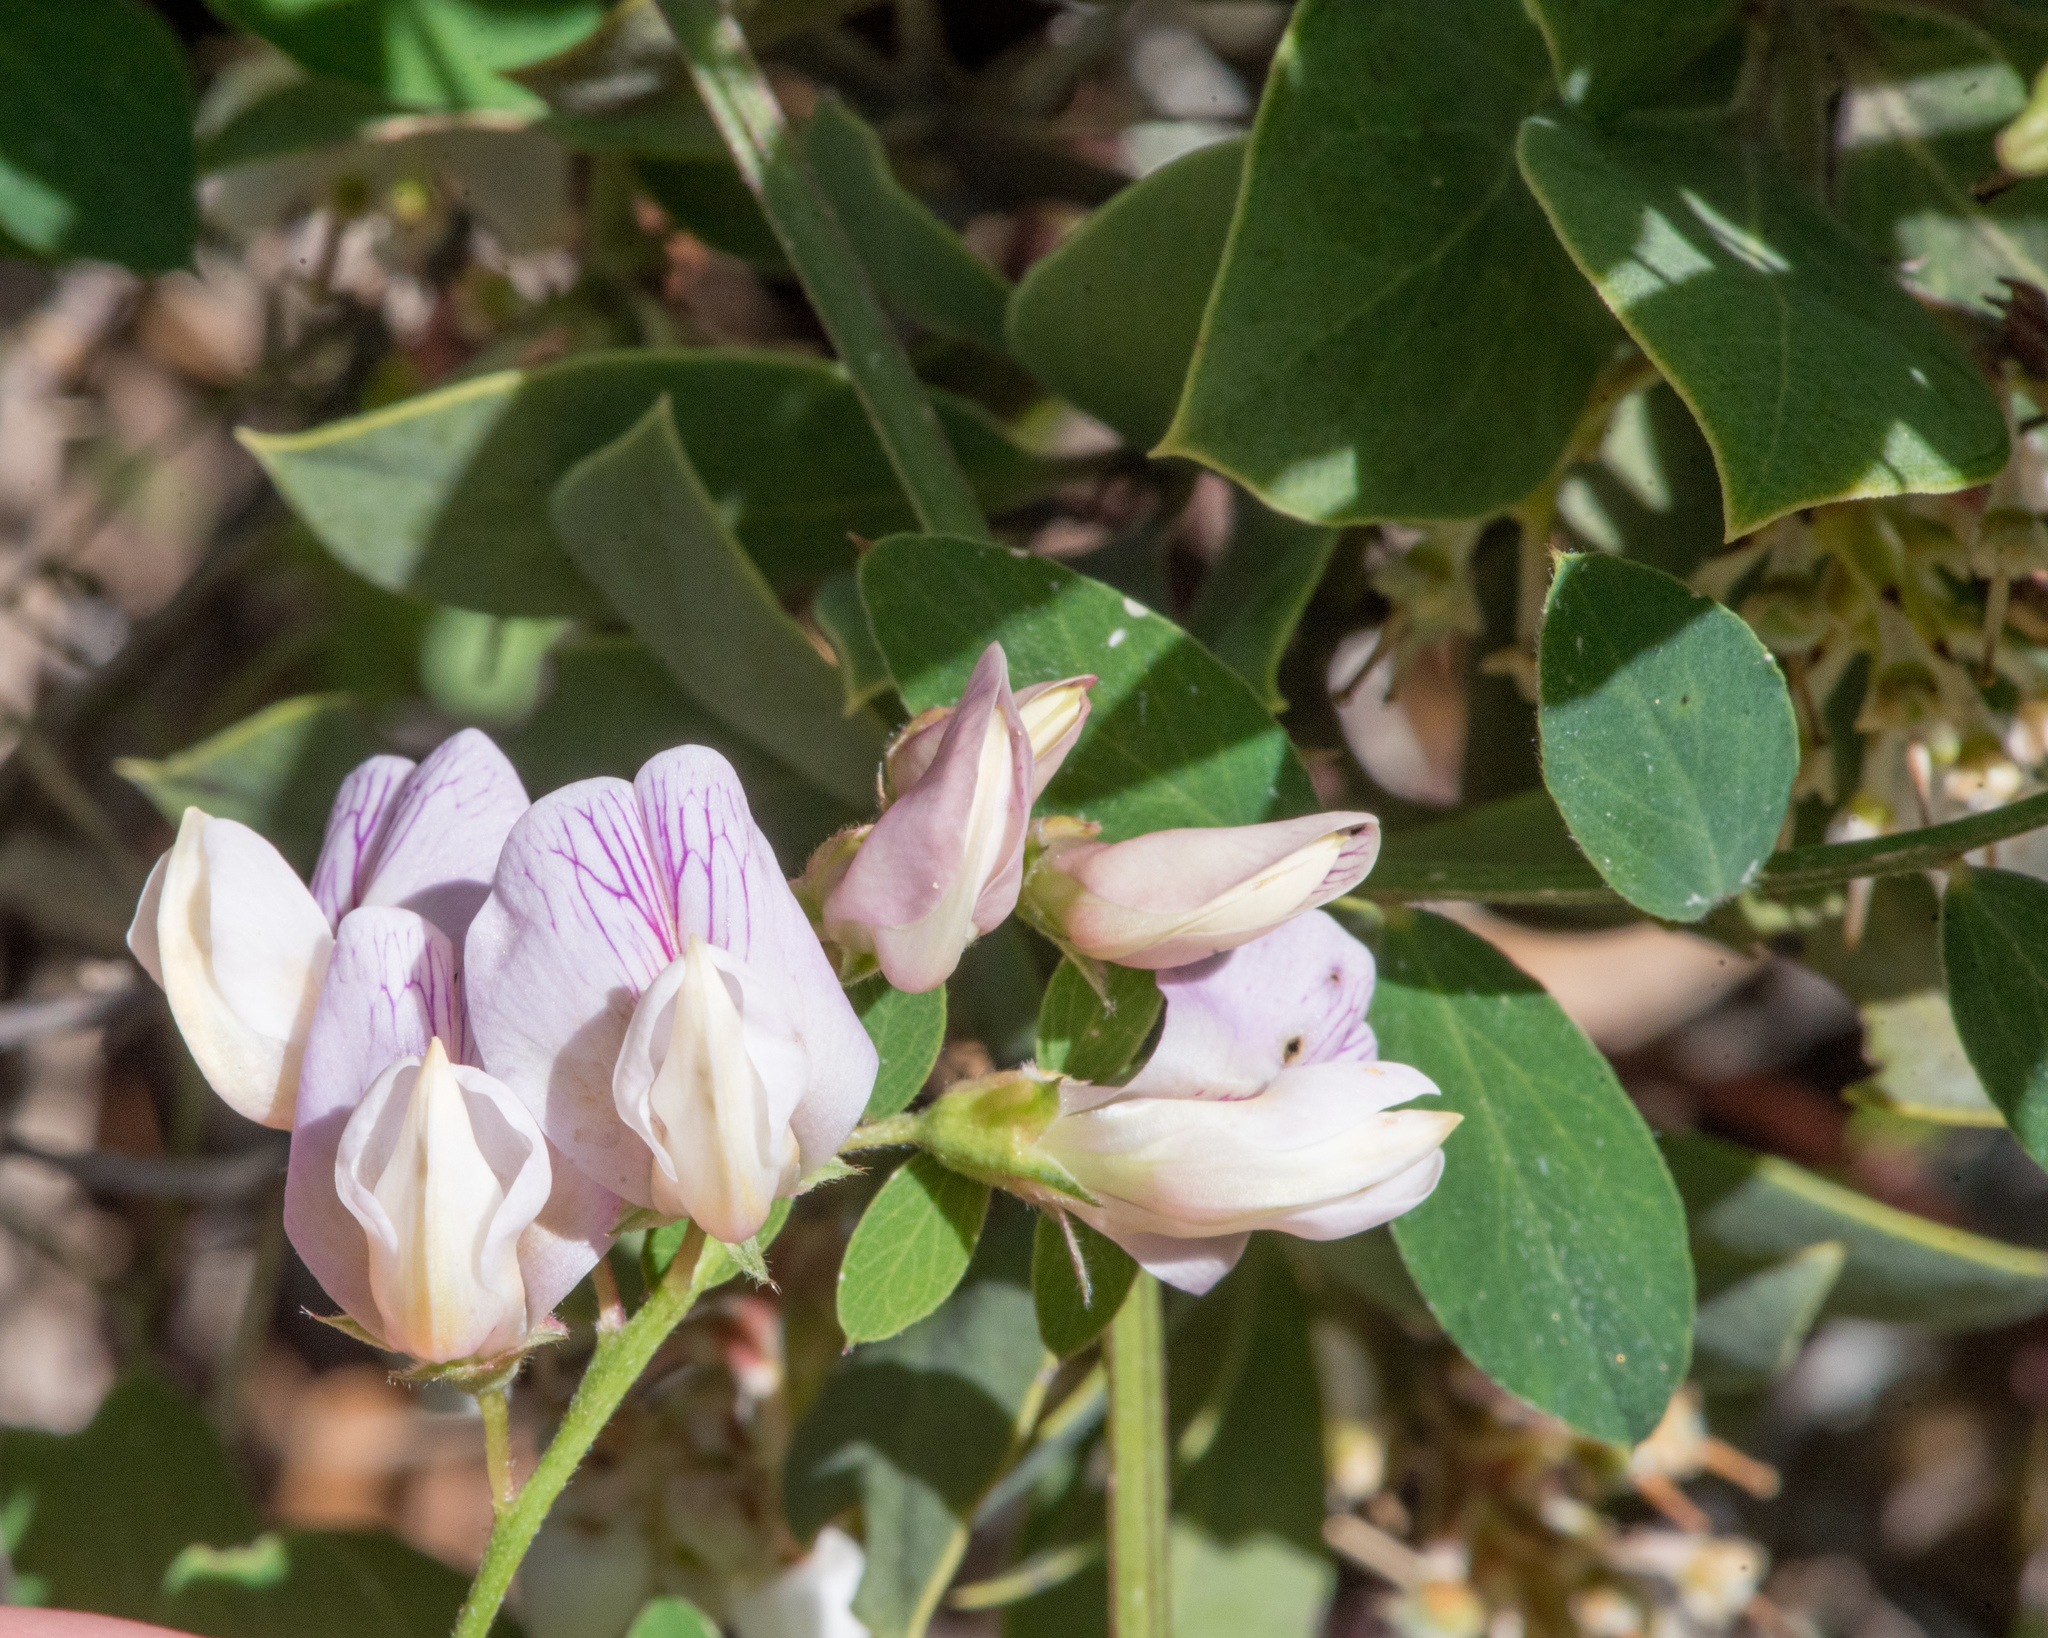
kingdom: Plantae
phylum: Tracheophyta
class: Magnoliopsida
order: Fabales
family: Fabaceae
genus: Lathyrus
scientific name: Lathyrus vestitus
